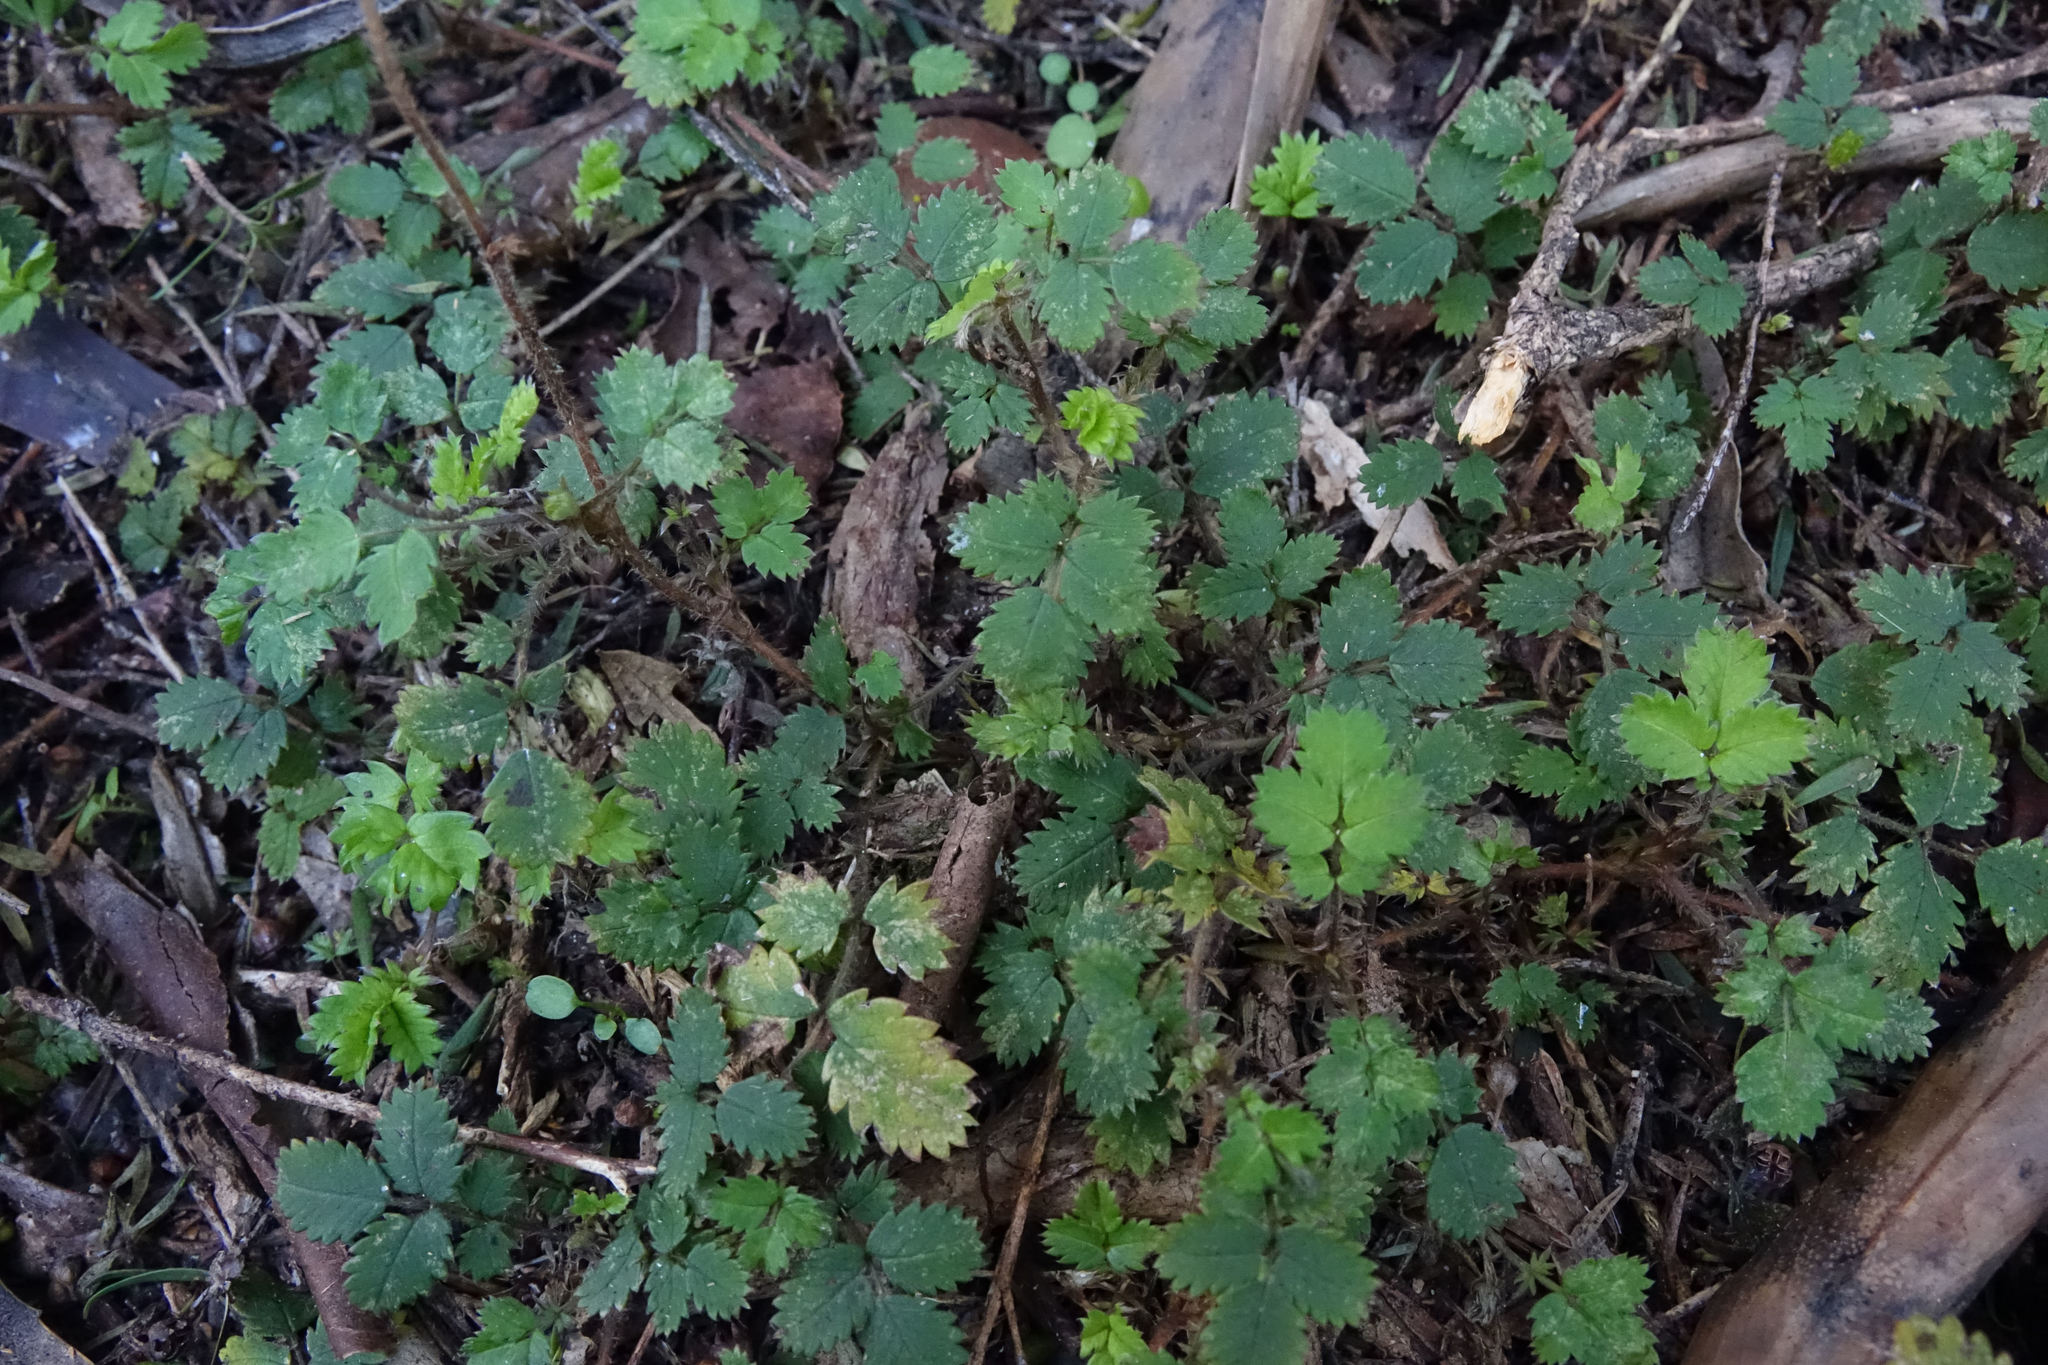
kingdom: Plantae
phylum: Tracheophyta
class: Magnoliopsida
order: Rosales
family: Rosaceae
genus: Acaena
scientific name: Acaena juvenca
